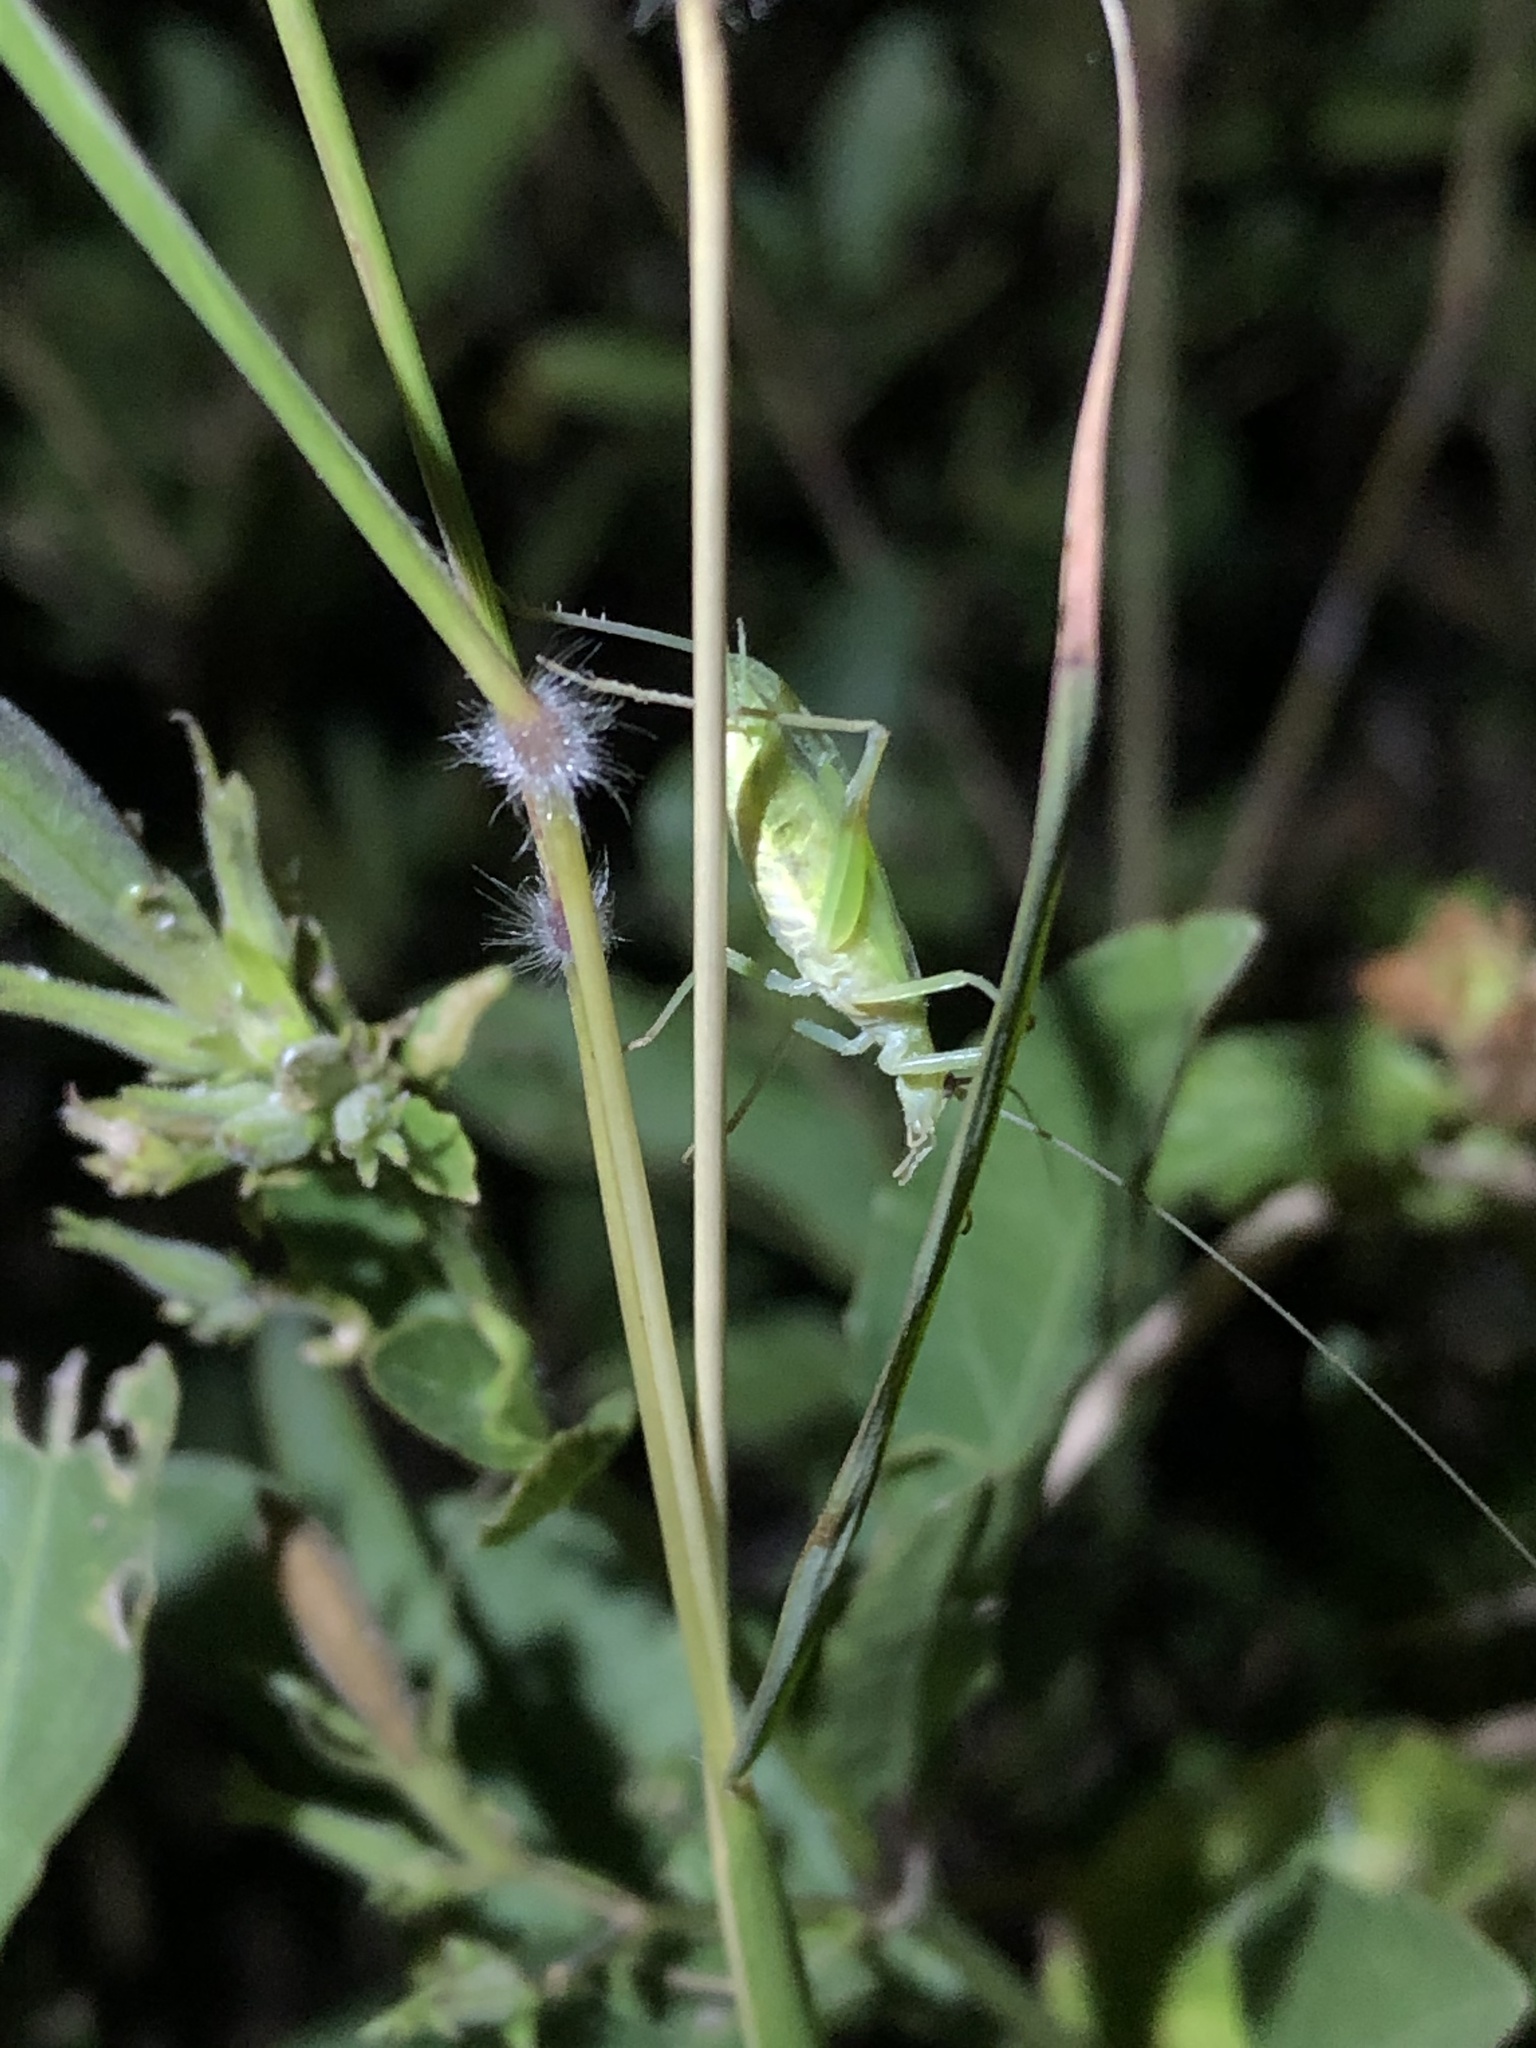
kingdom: Animalia
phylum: Arthropoda
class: Insecta
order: Orthoptera
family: Gryllidae
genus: Oecanthus
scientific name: Oecanthus celerinictus
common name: Fast-calling tree cricket
